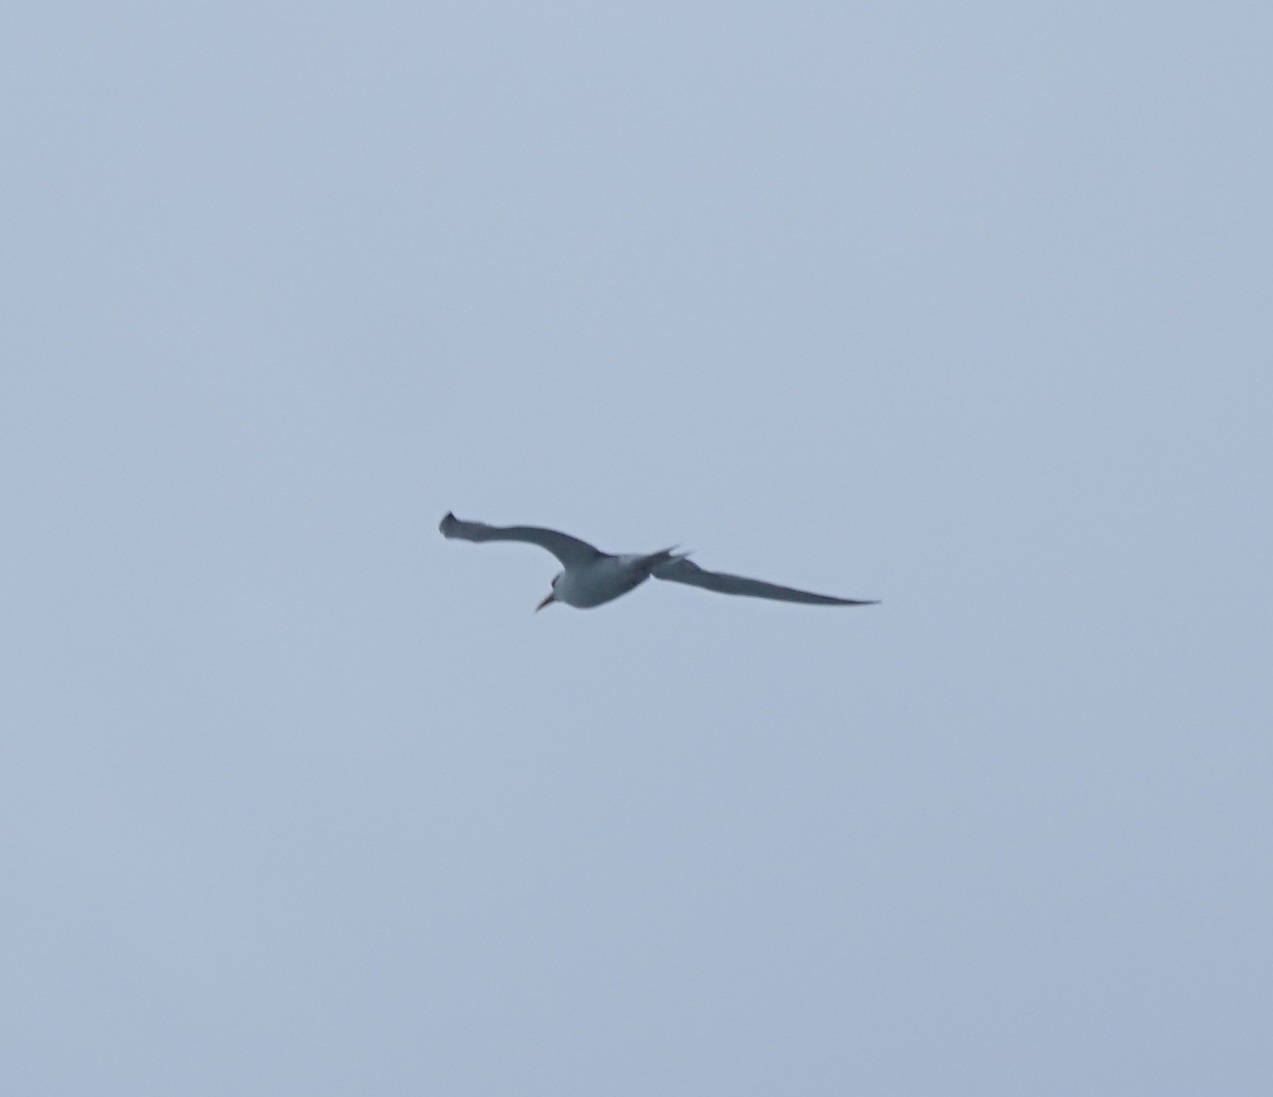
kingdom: Animalia
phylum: Chordata
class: Aves
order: Charadriiformes
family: Laridae
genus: Thalasseus
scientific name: Thalasseus bergii
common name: Greater crested tern
